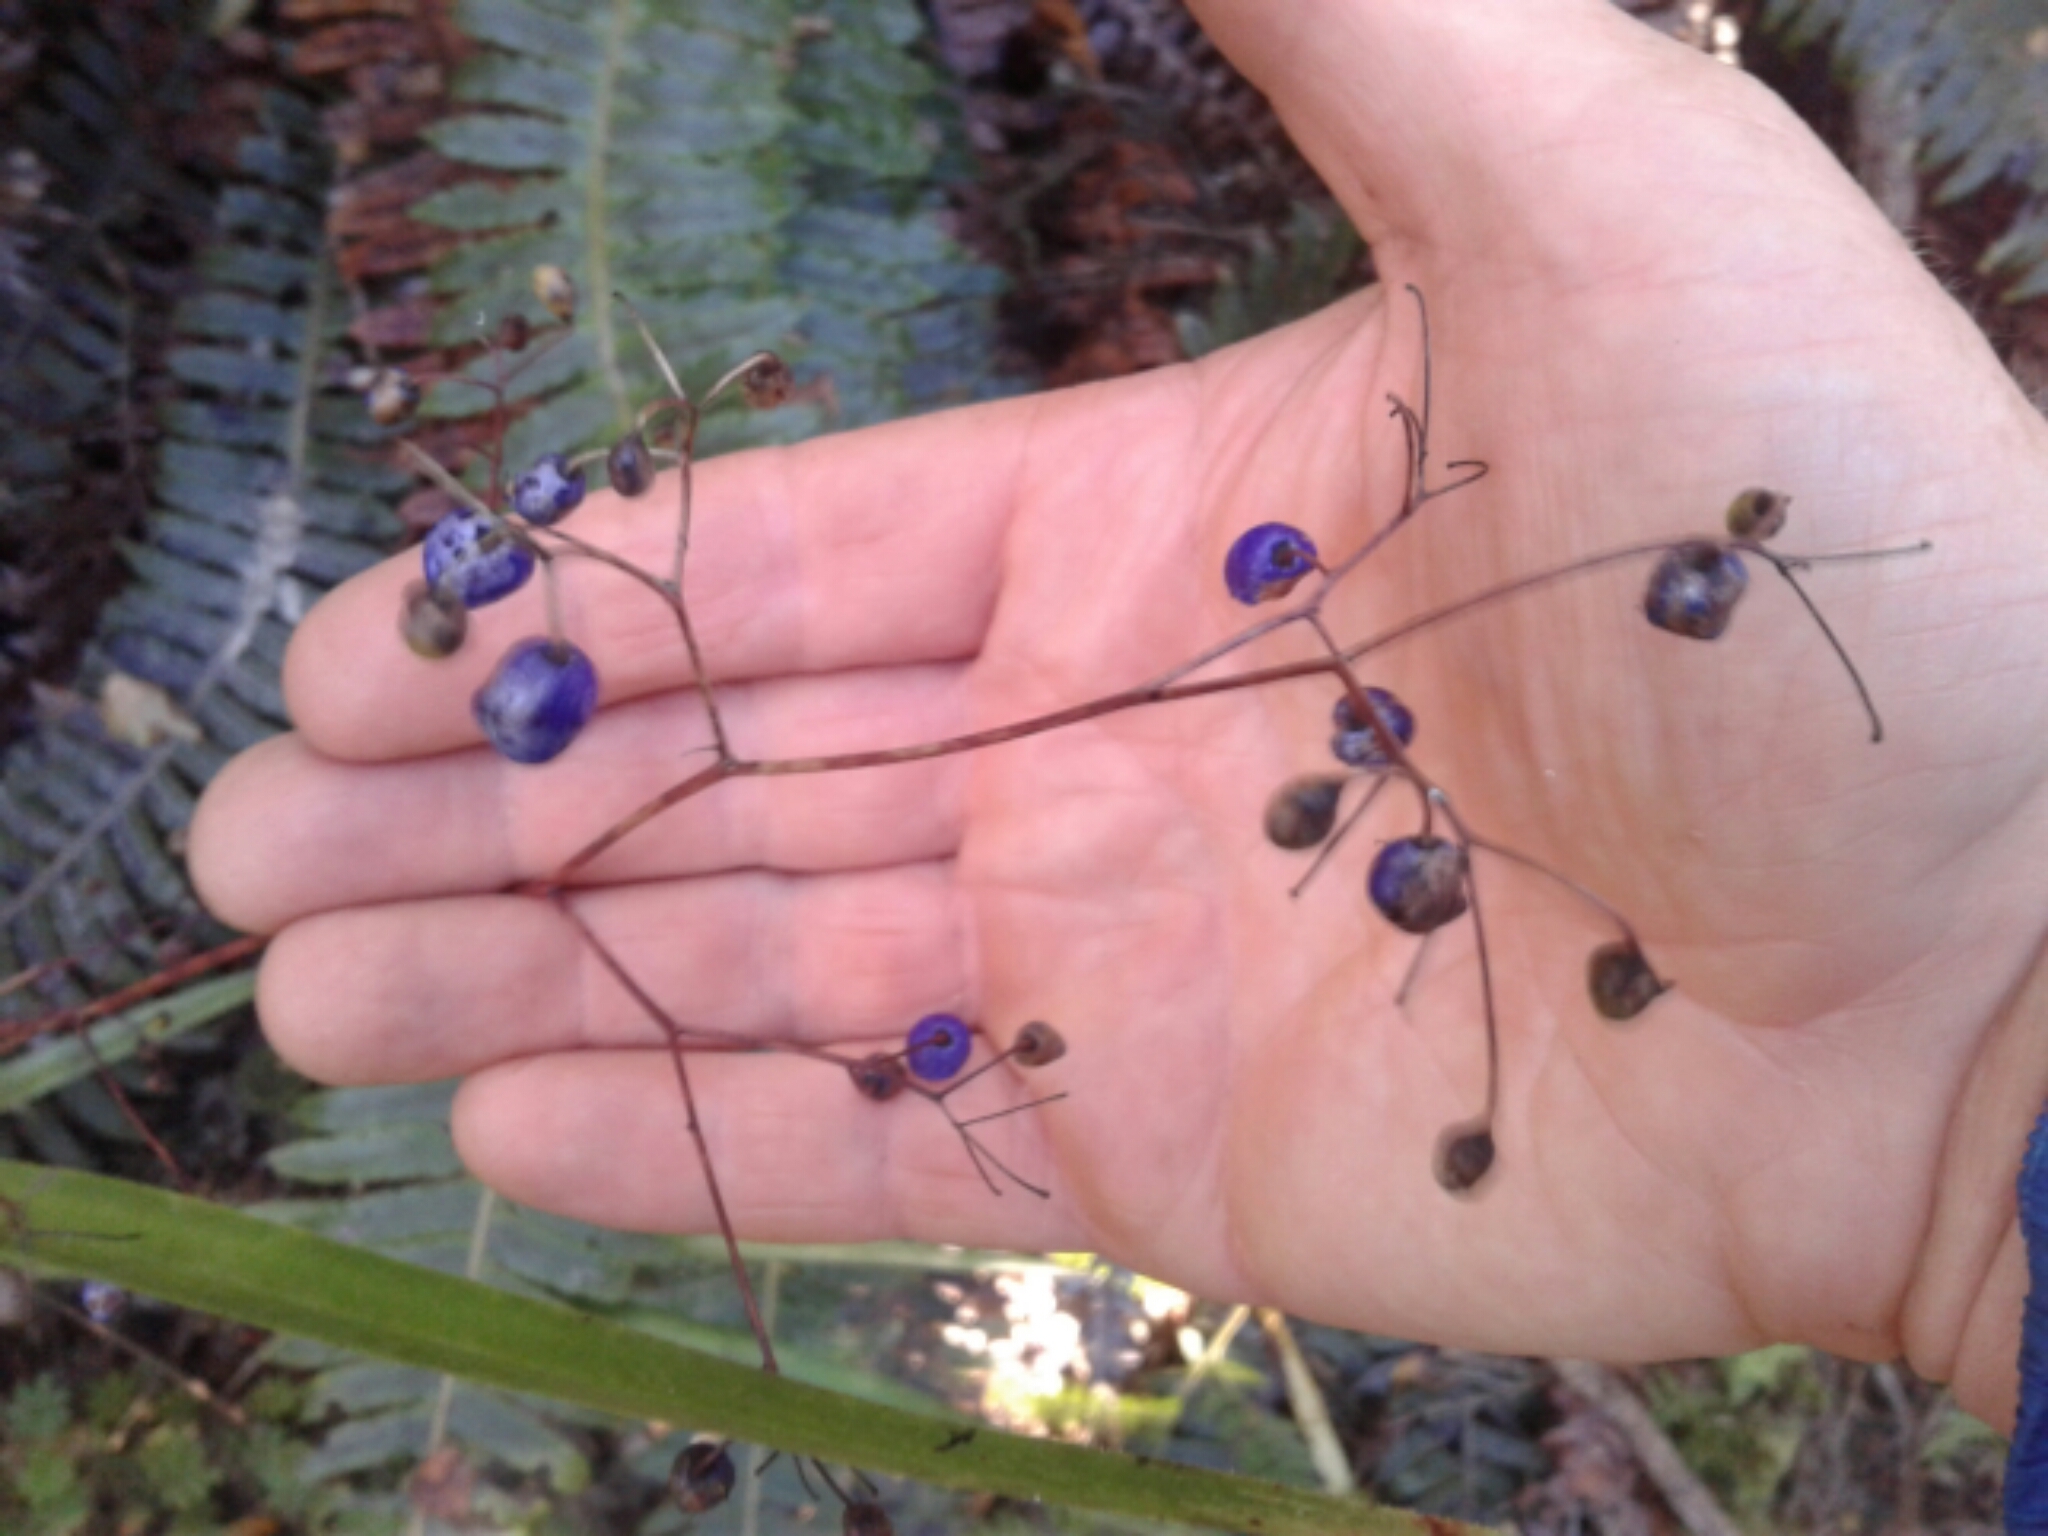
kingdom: Plantae
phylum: Tracheophyta
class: Liliopsida
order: Asparagales
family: Asphodelaceae
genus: Dianella
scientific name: Dianella nigra
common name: New zealand-blueberry
